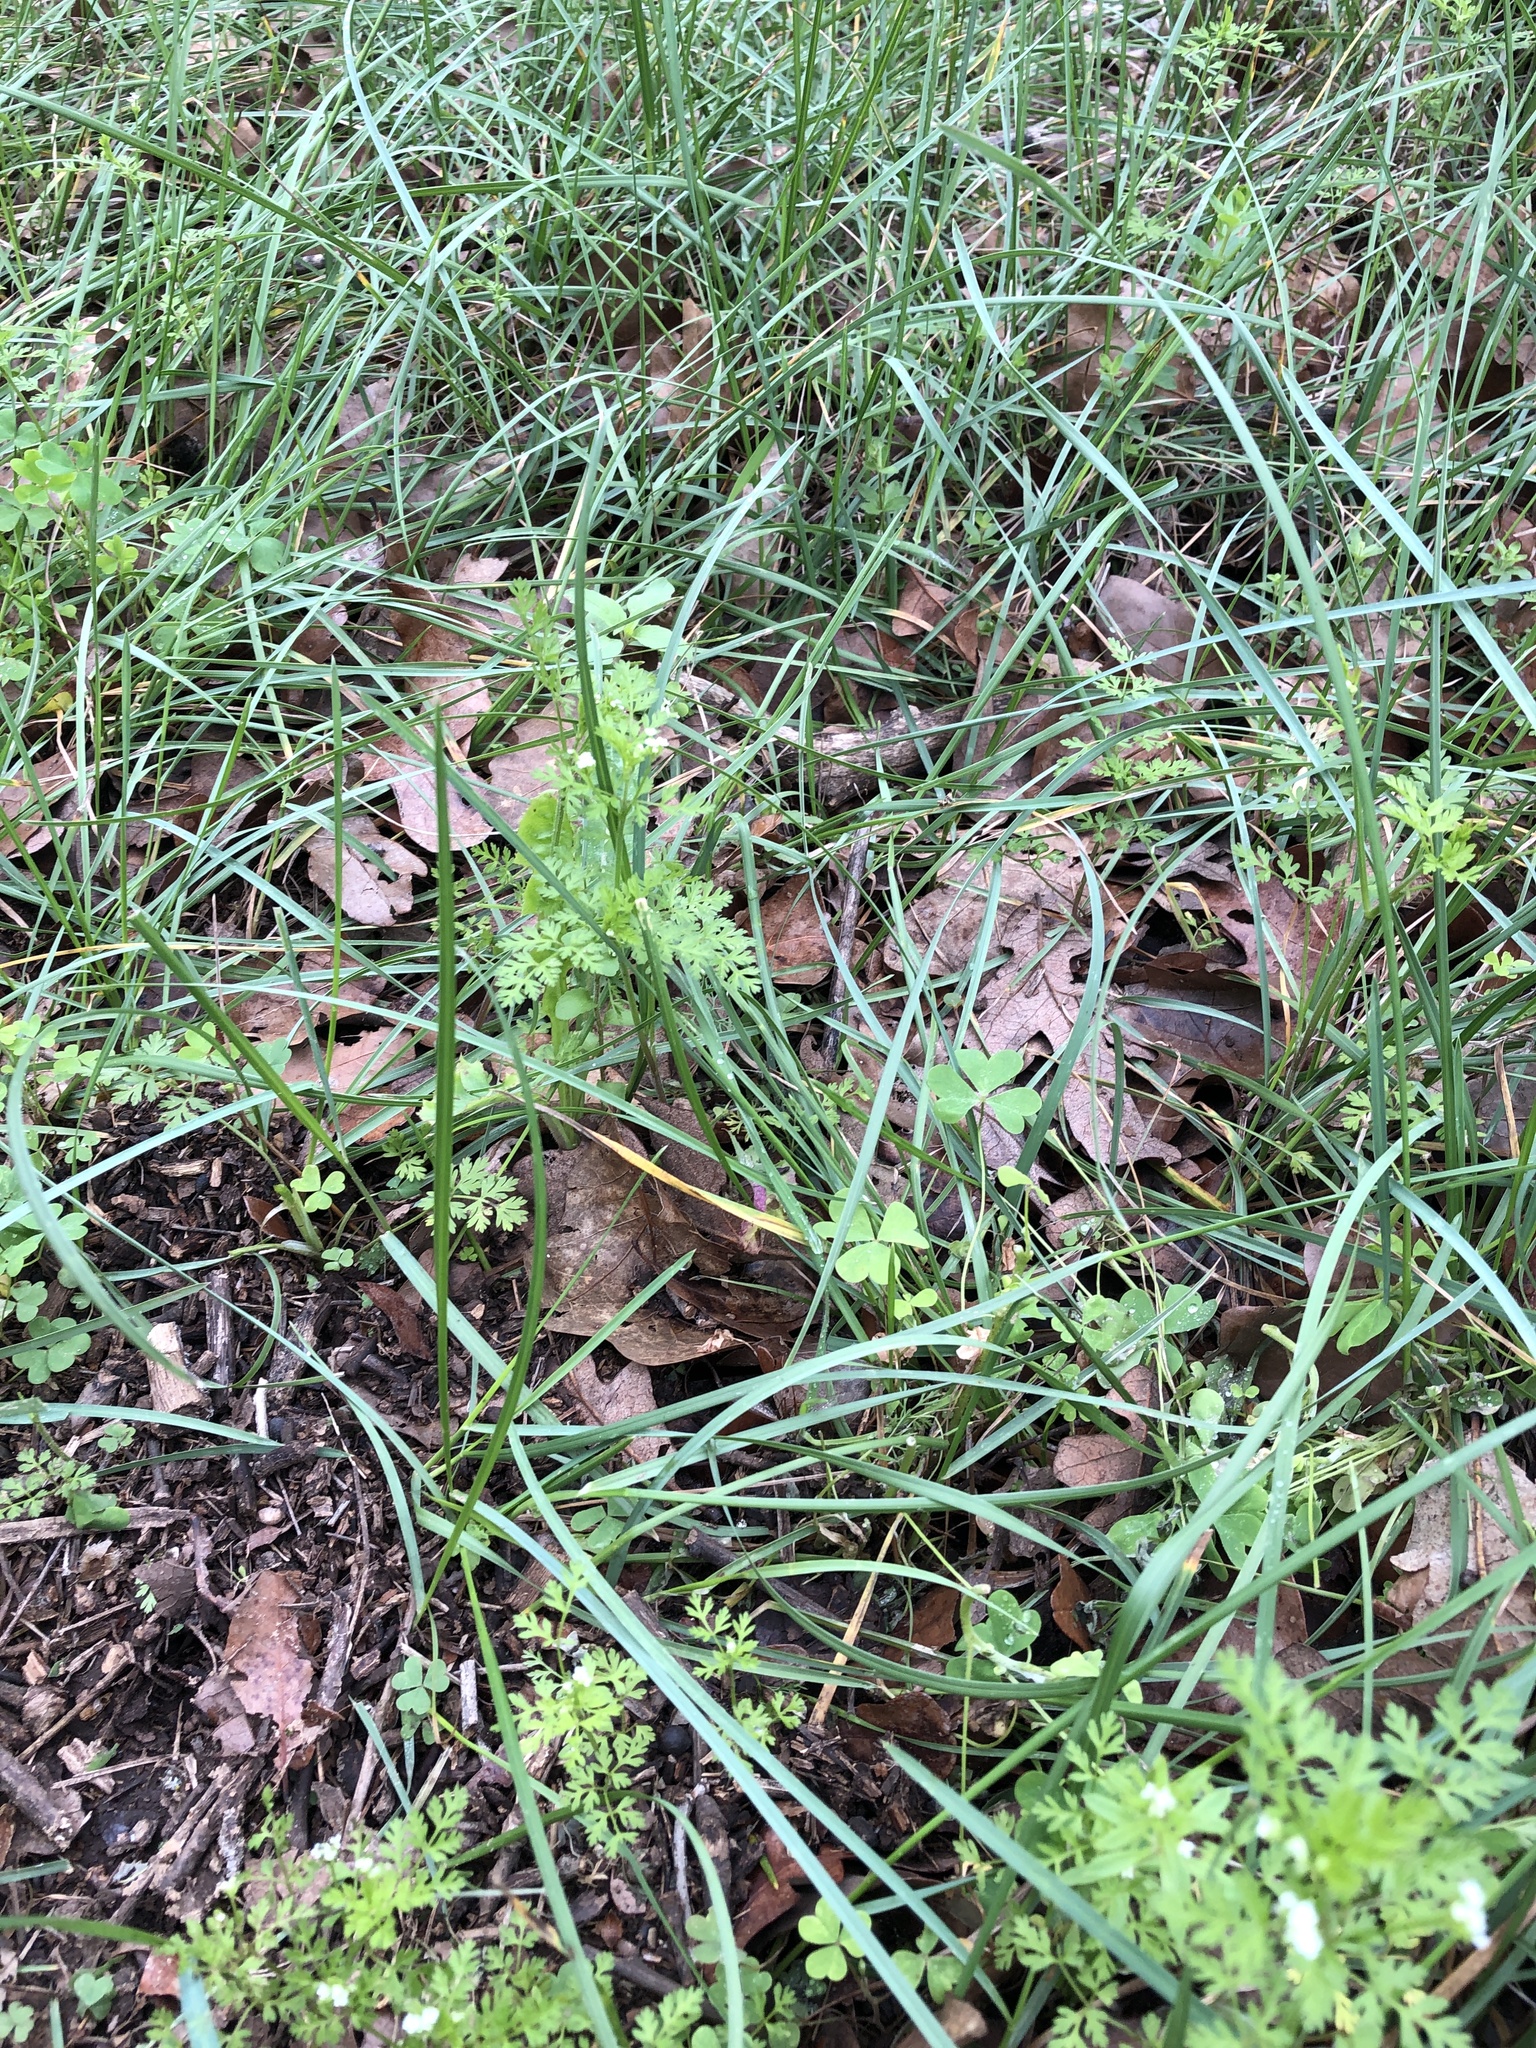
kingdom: Plantae
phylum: Tracheophyta
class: Magnoliopsida
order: Apiales
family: Apiaceae
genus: Chaerophyllum
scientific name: Chaerophyllum tainturieri
